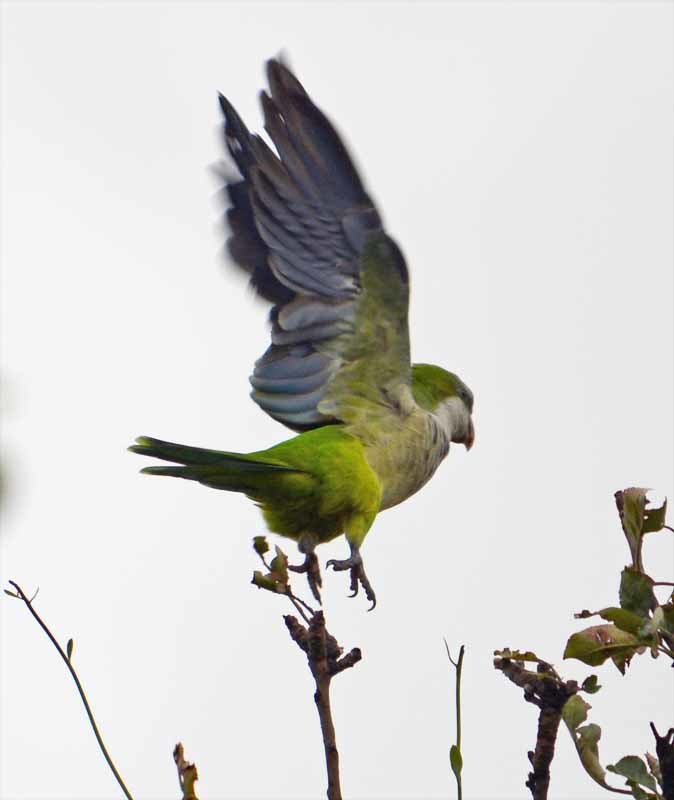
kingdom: Animalia
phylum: Chordata
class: Aves
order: Psittaciformes
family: Psittacidae
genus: Myiopsitta
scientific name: Myiopsitta monachus
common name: Monk parakeet
